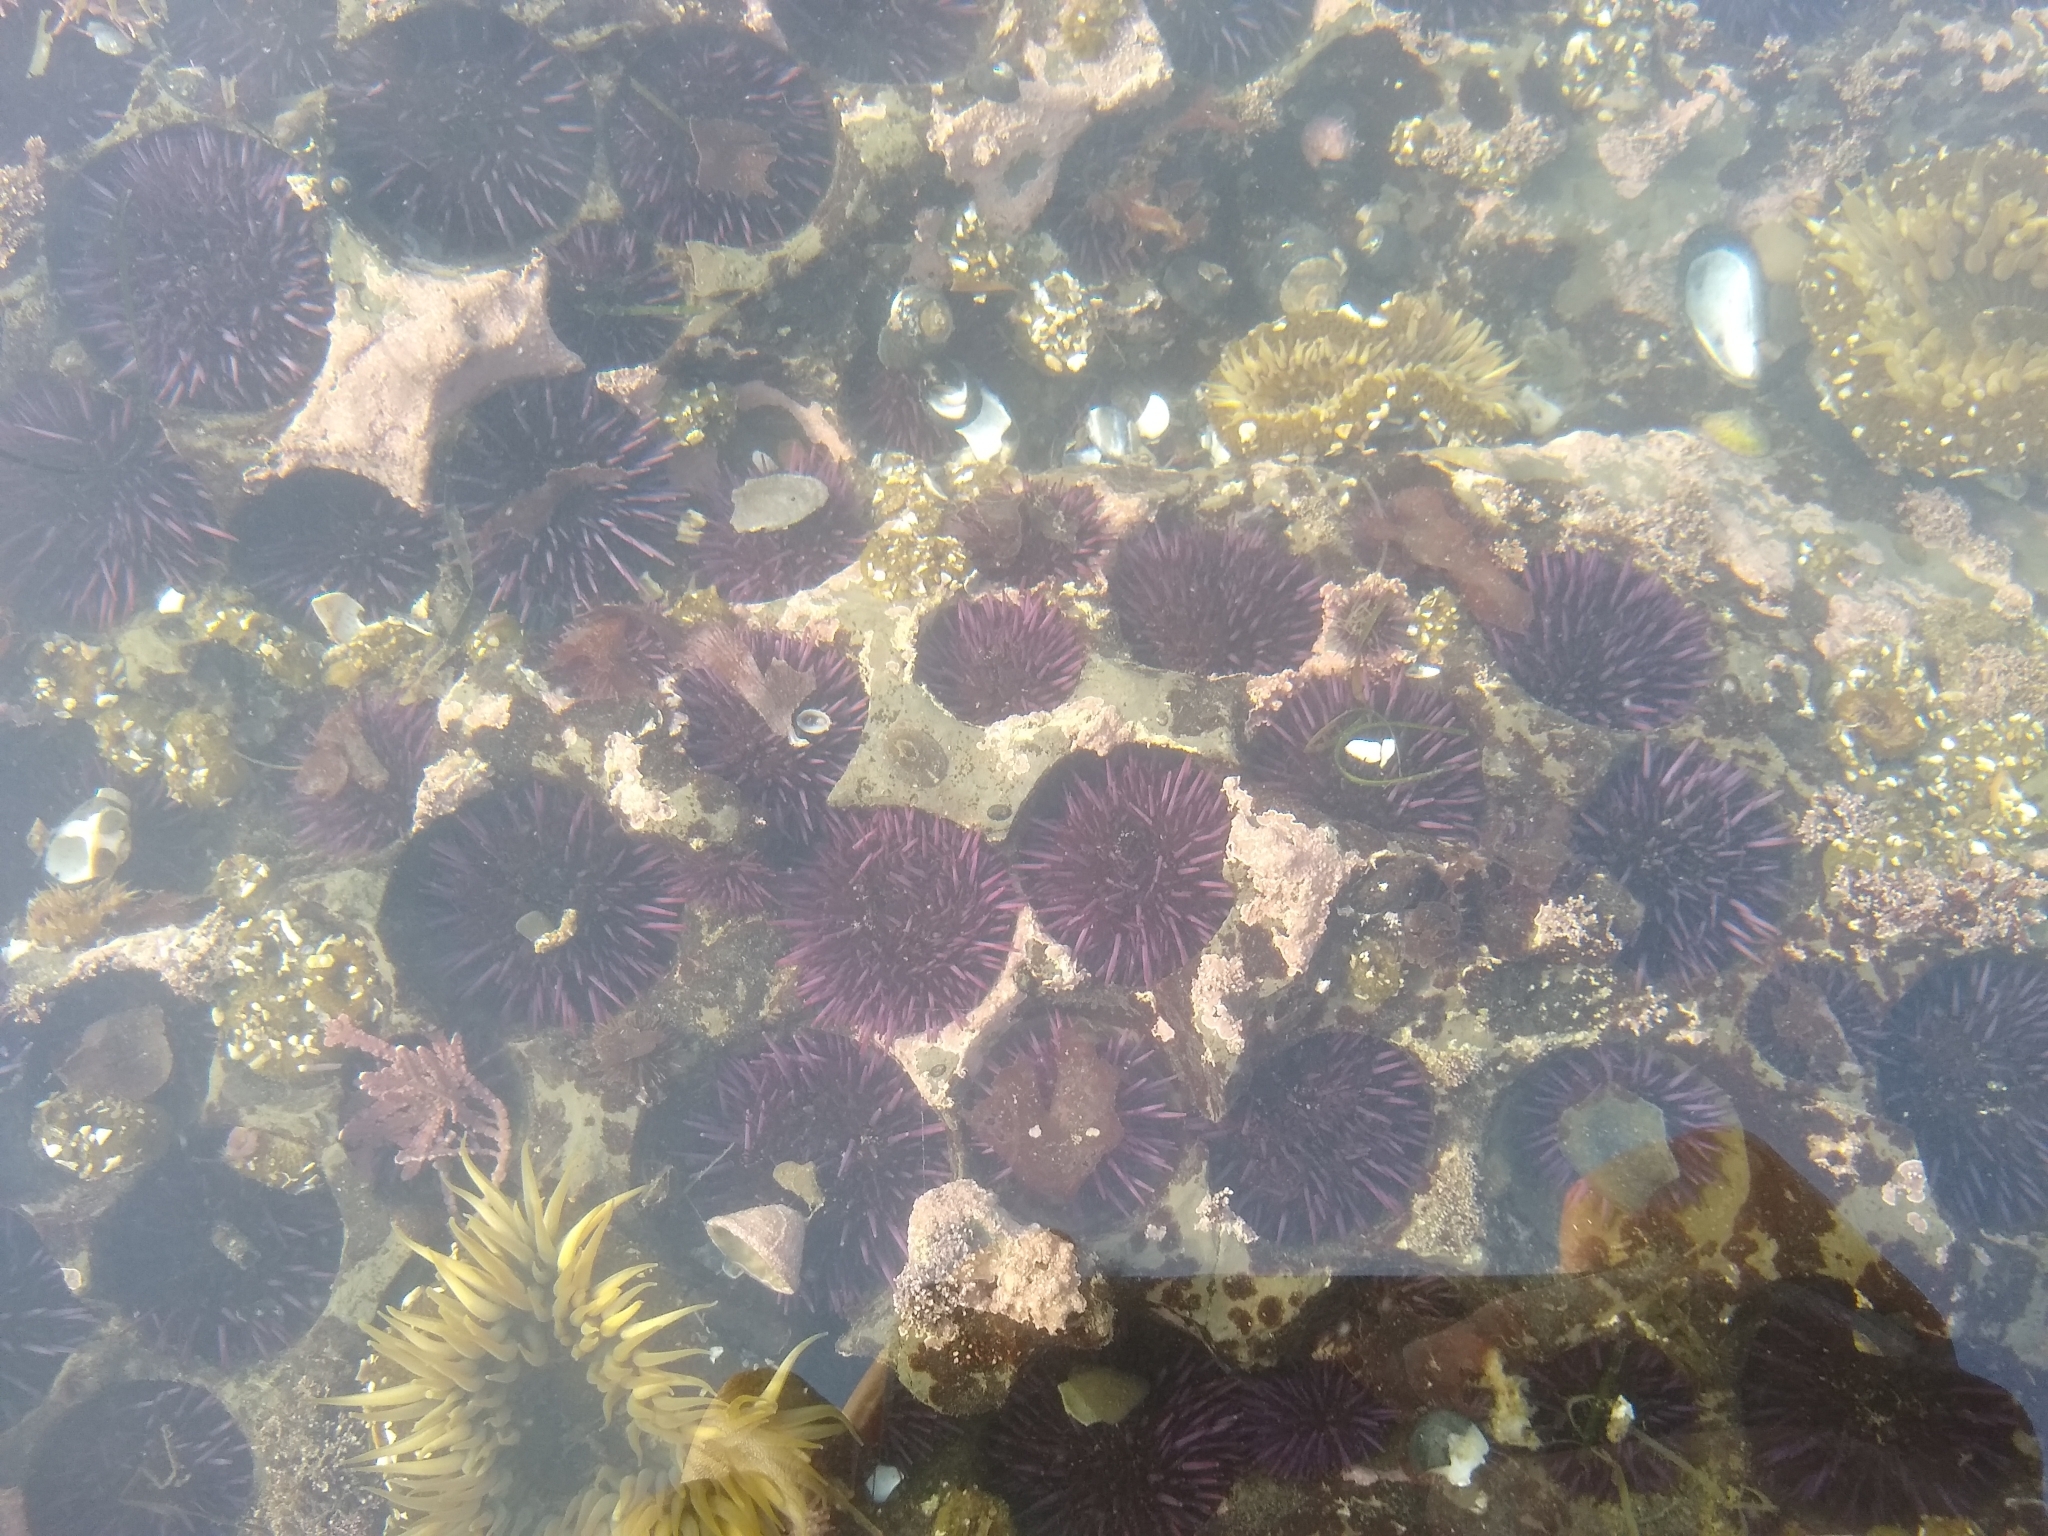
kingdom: Animalia
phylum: Echinodermata
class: Echinoidea
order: Camarodonta
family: Strongylocentrotidae
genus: Strongylocentrotus
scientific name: Strongylocentrotus purpuratus
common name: Purple sea urchin
